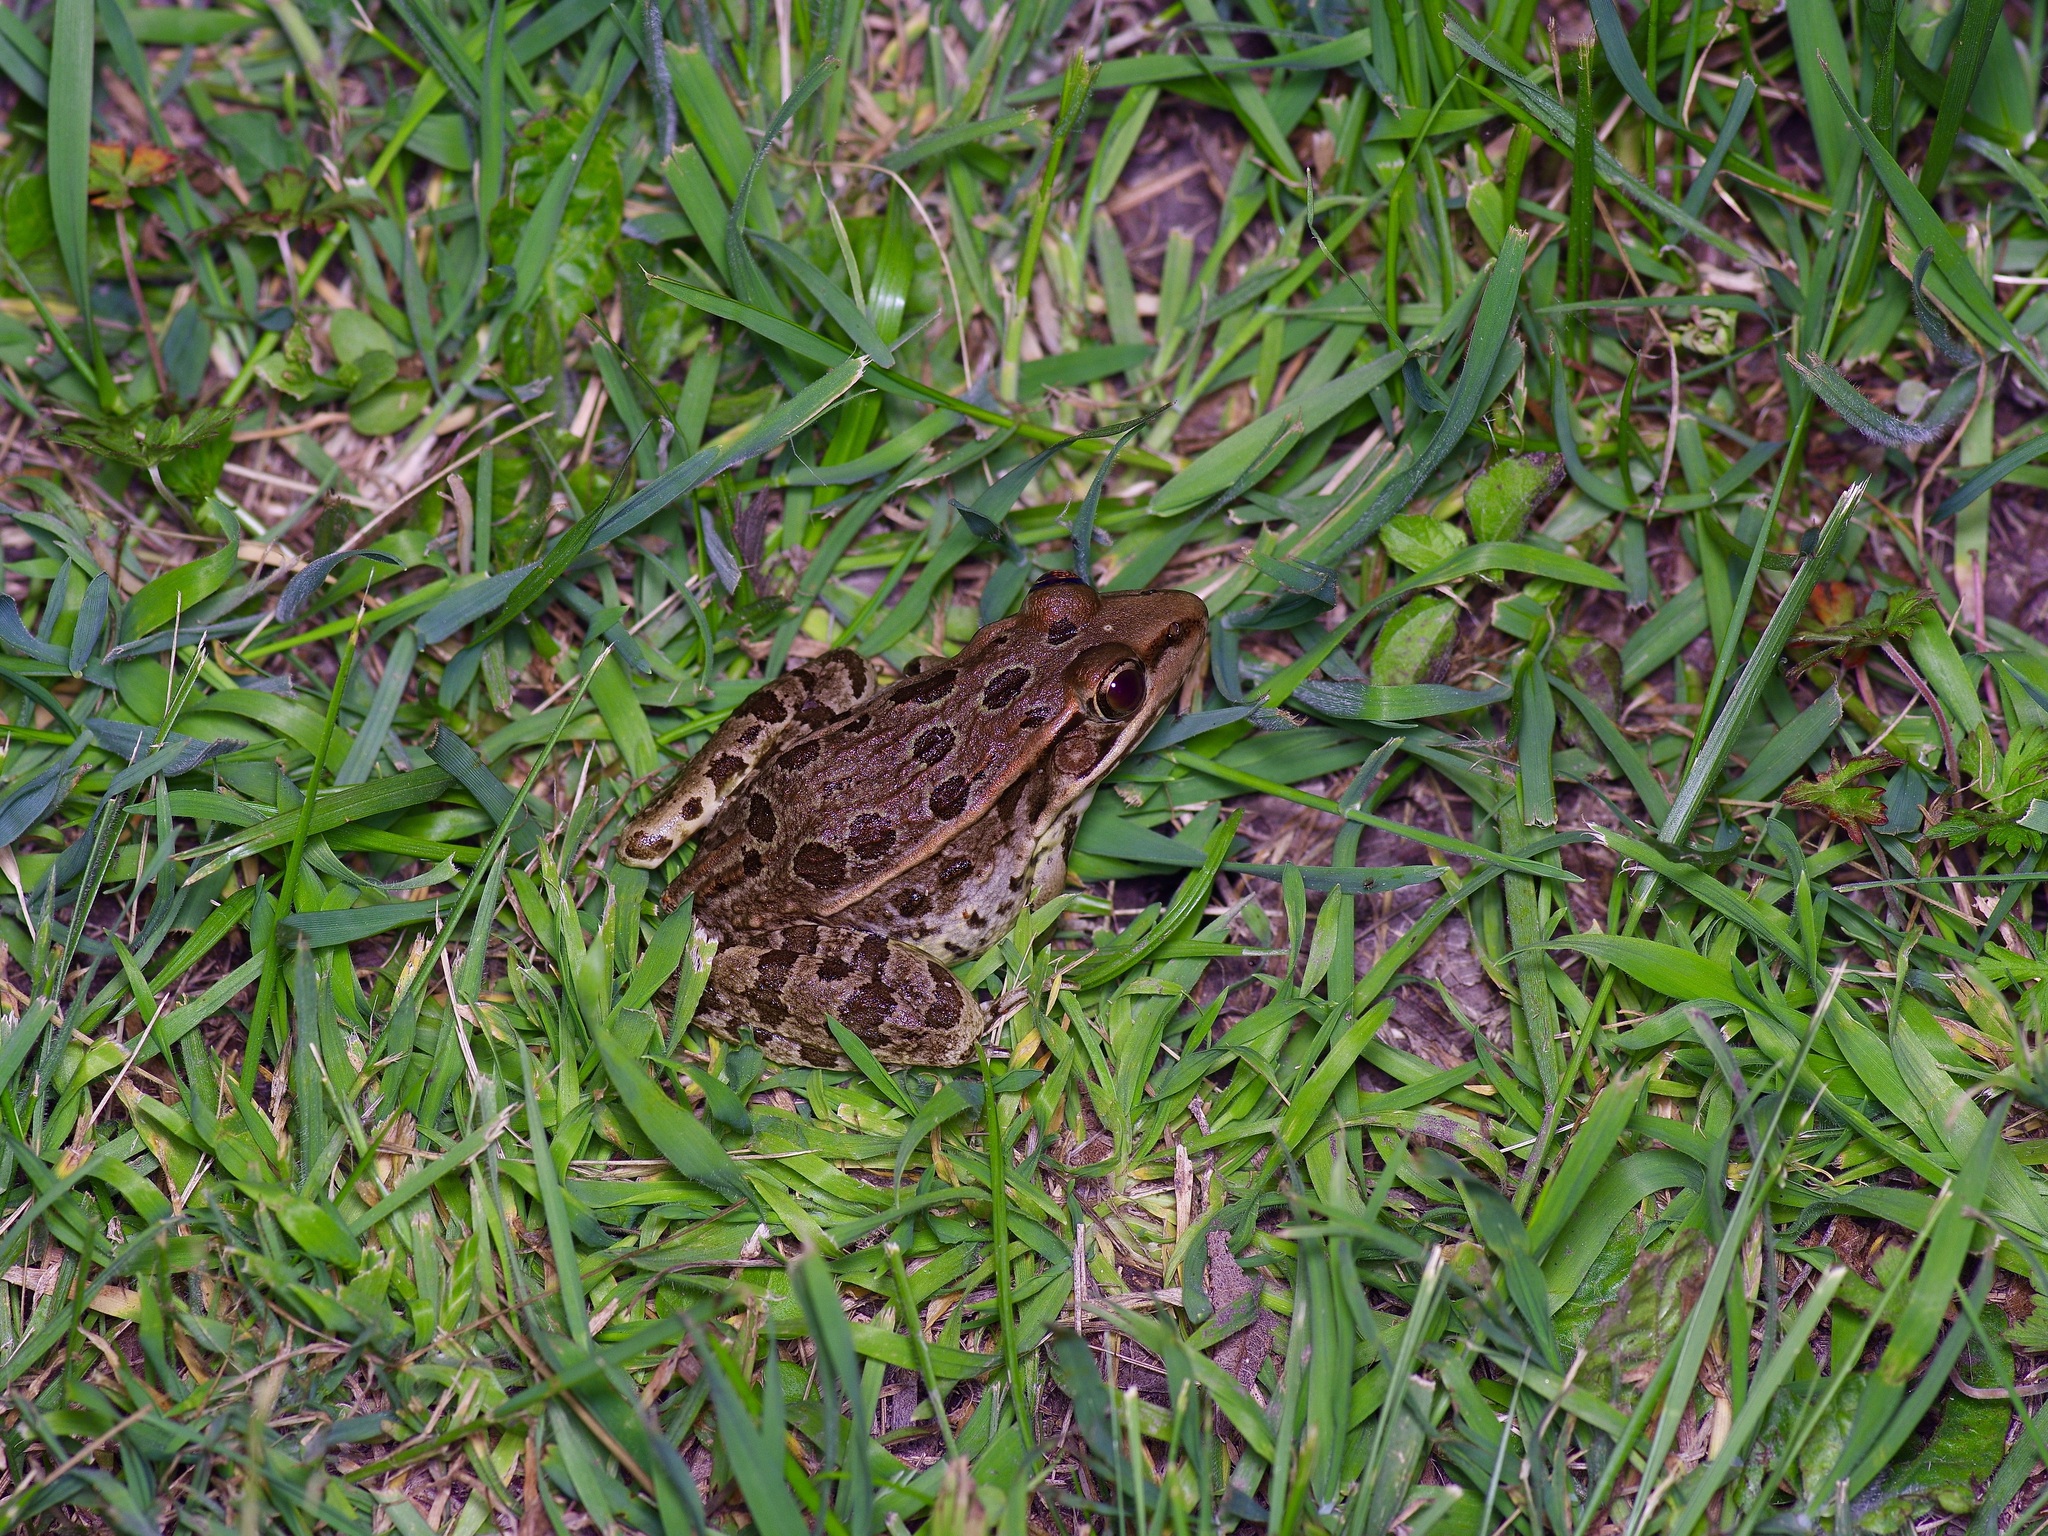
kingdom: Animalia
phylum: Chordata
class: Amphibia
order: Anura
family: Ranidae
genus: Lithobates
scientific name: Lithobates berlandieri
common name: Rio grande leopard frog
